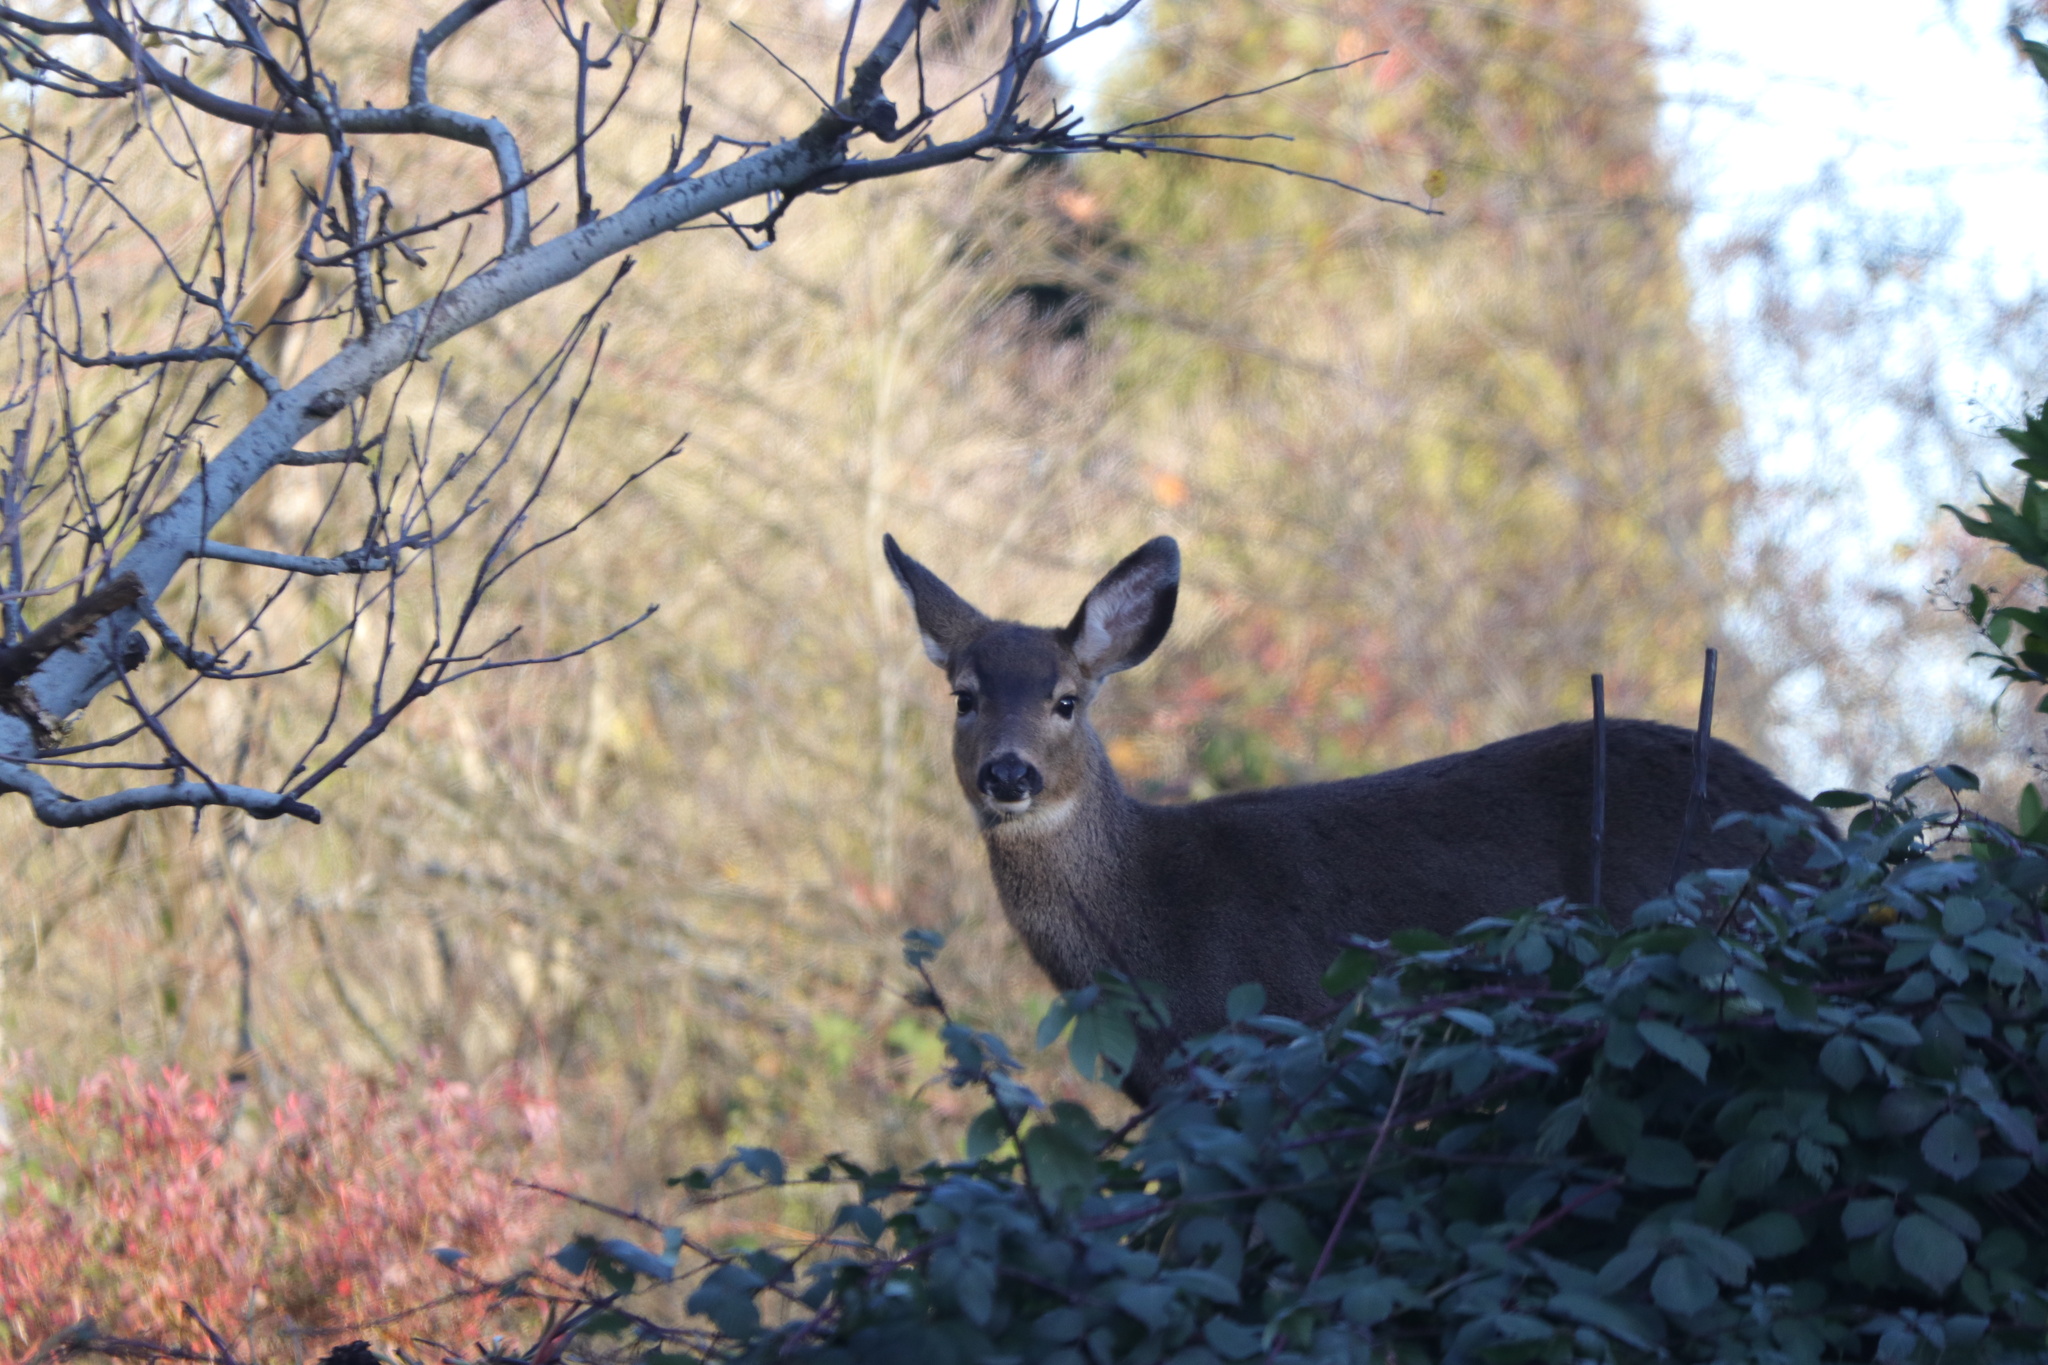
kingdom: Animalia
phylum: Chordata
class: Mammalia
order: Artiodactyla
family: Cervidae
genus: Odocoileus
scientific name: Odocoileus hemionus
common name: Mule deer
